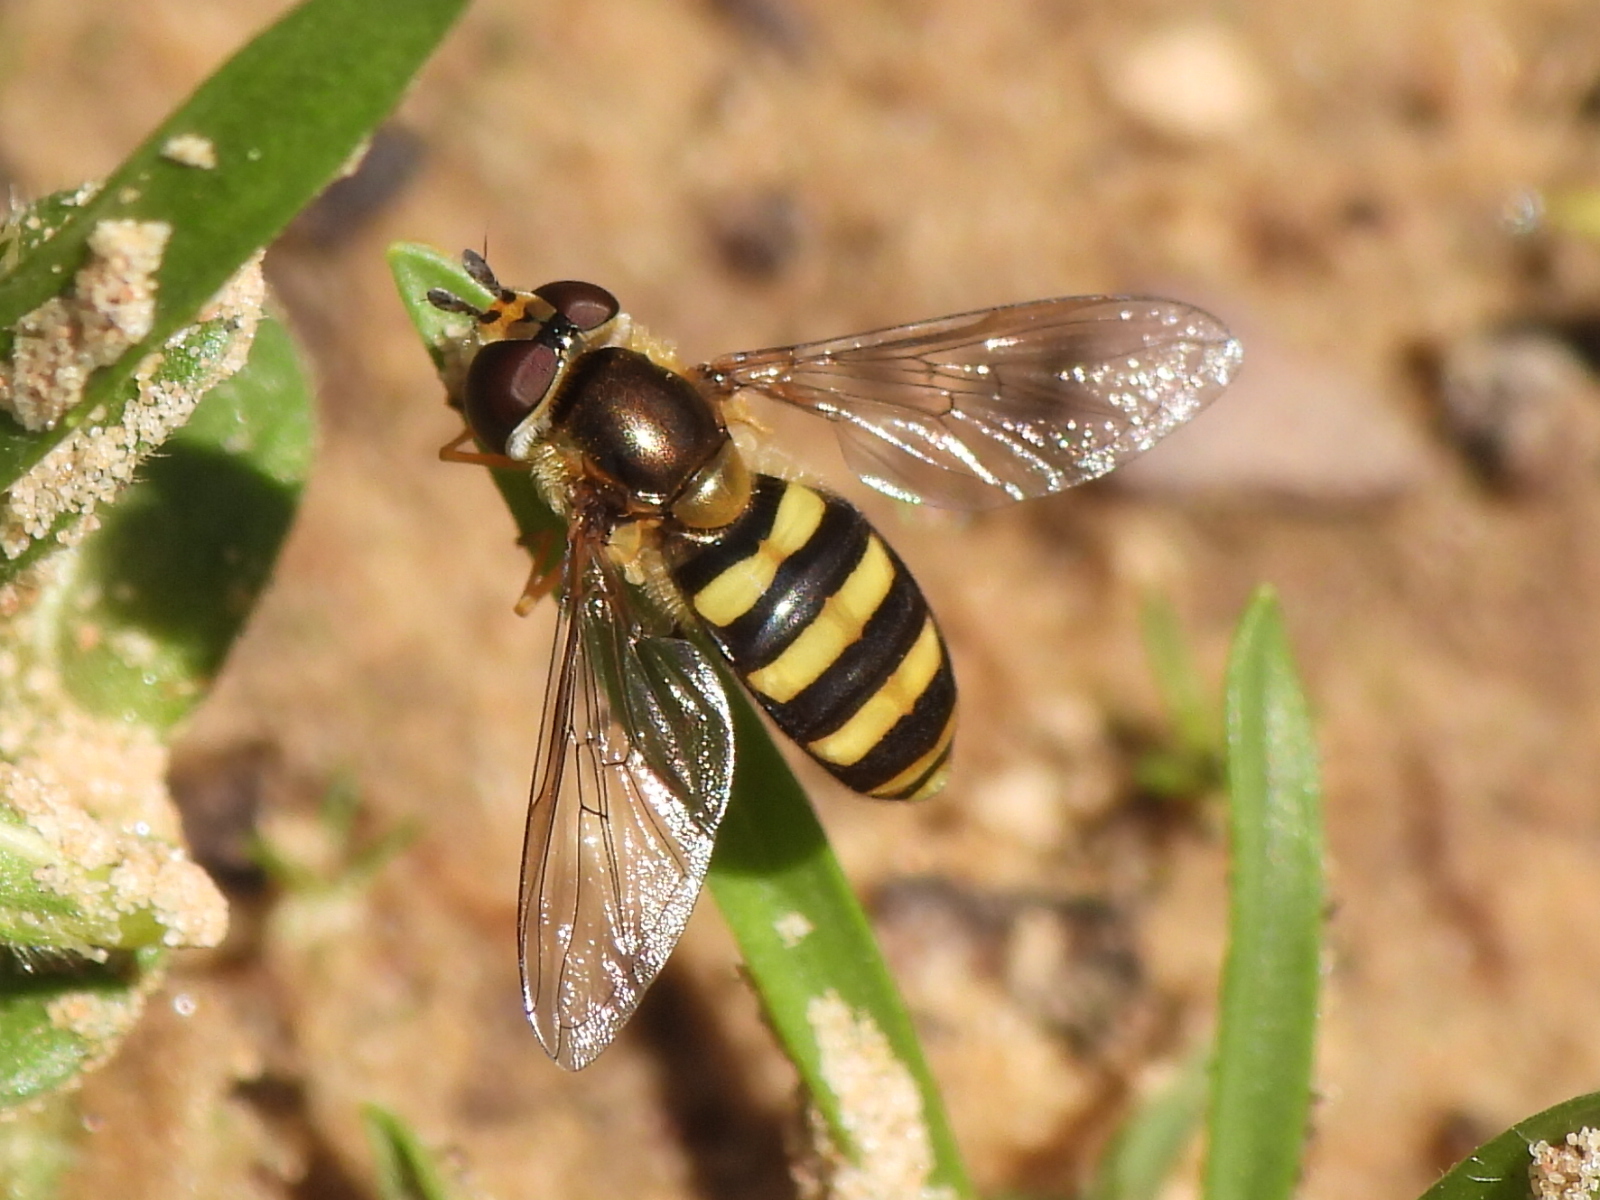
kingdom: Animalia
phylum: Arthropoda
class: Insecta
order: Diptera
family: Syrphidae
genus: Eupeodes
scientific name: Eupeodes
